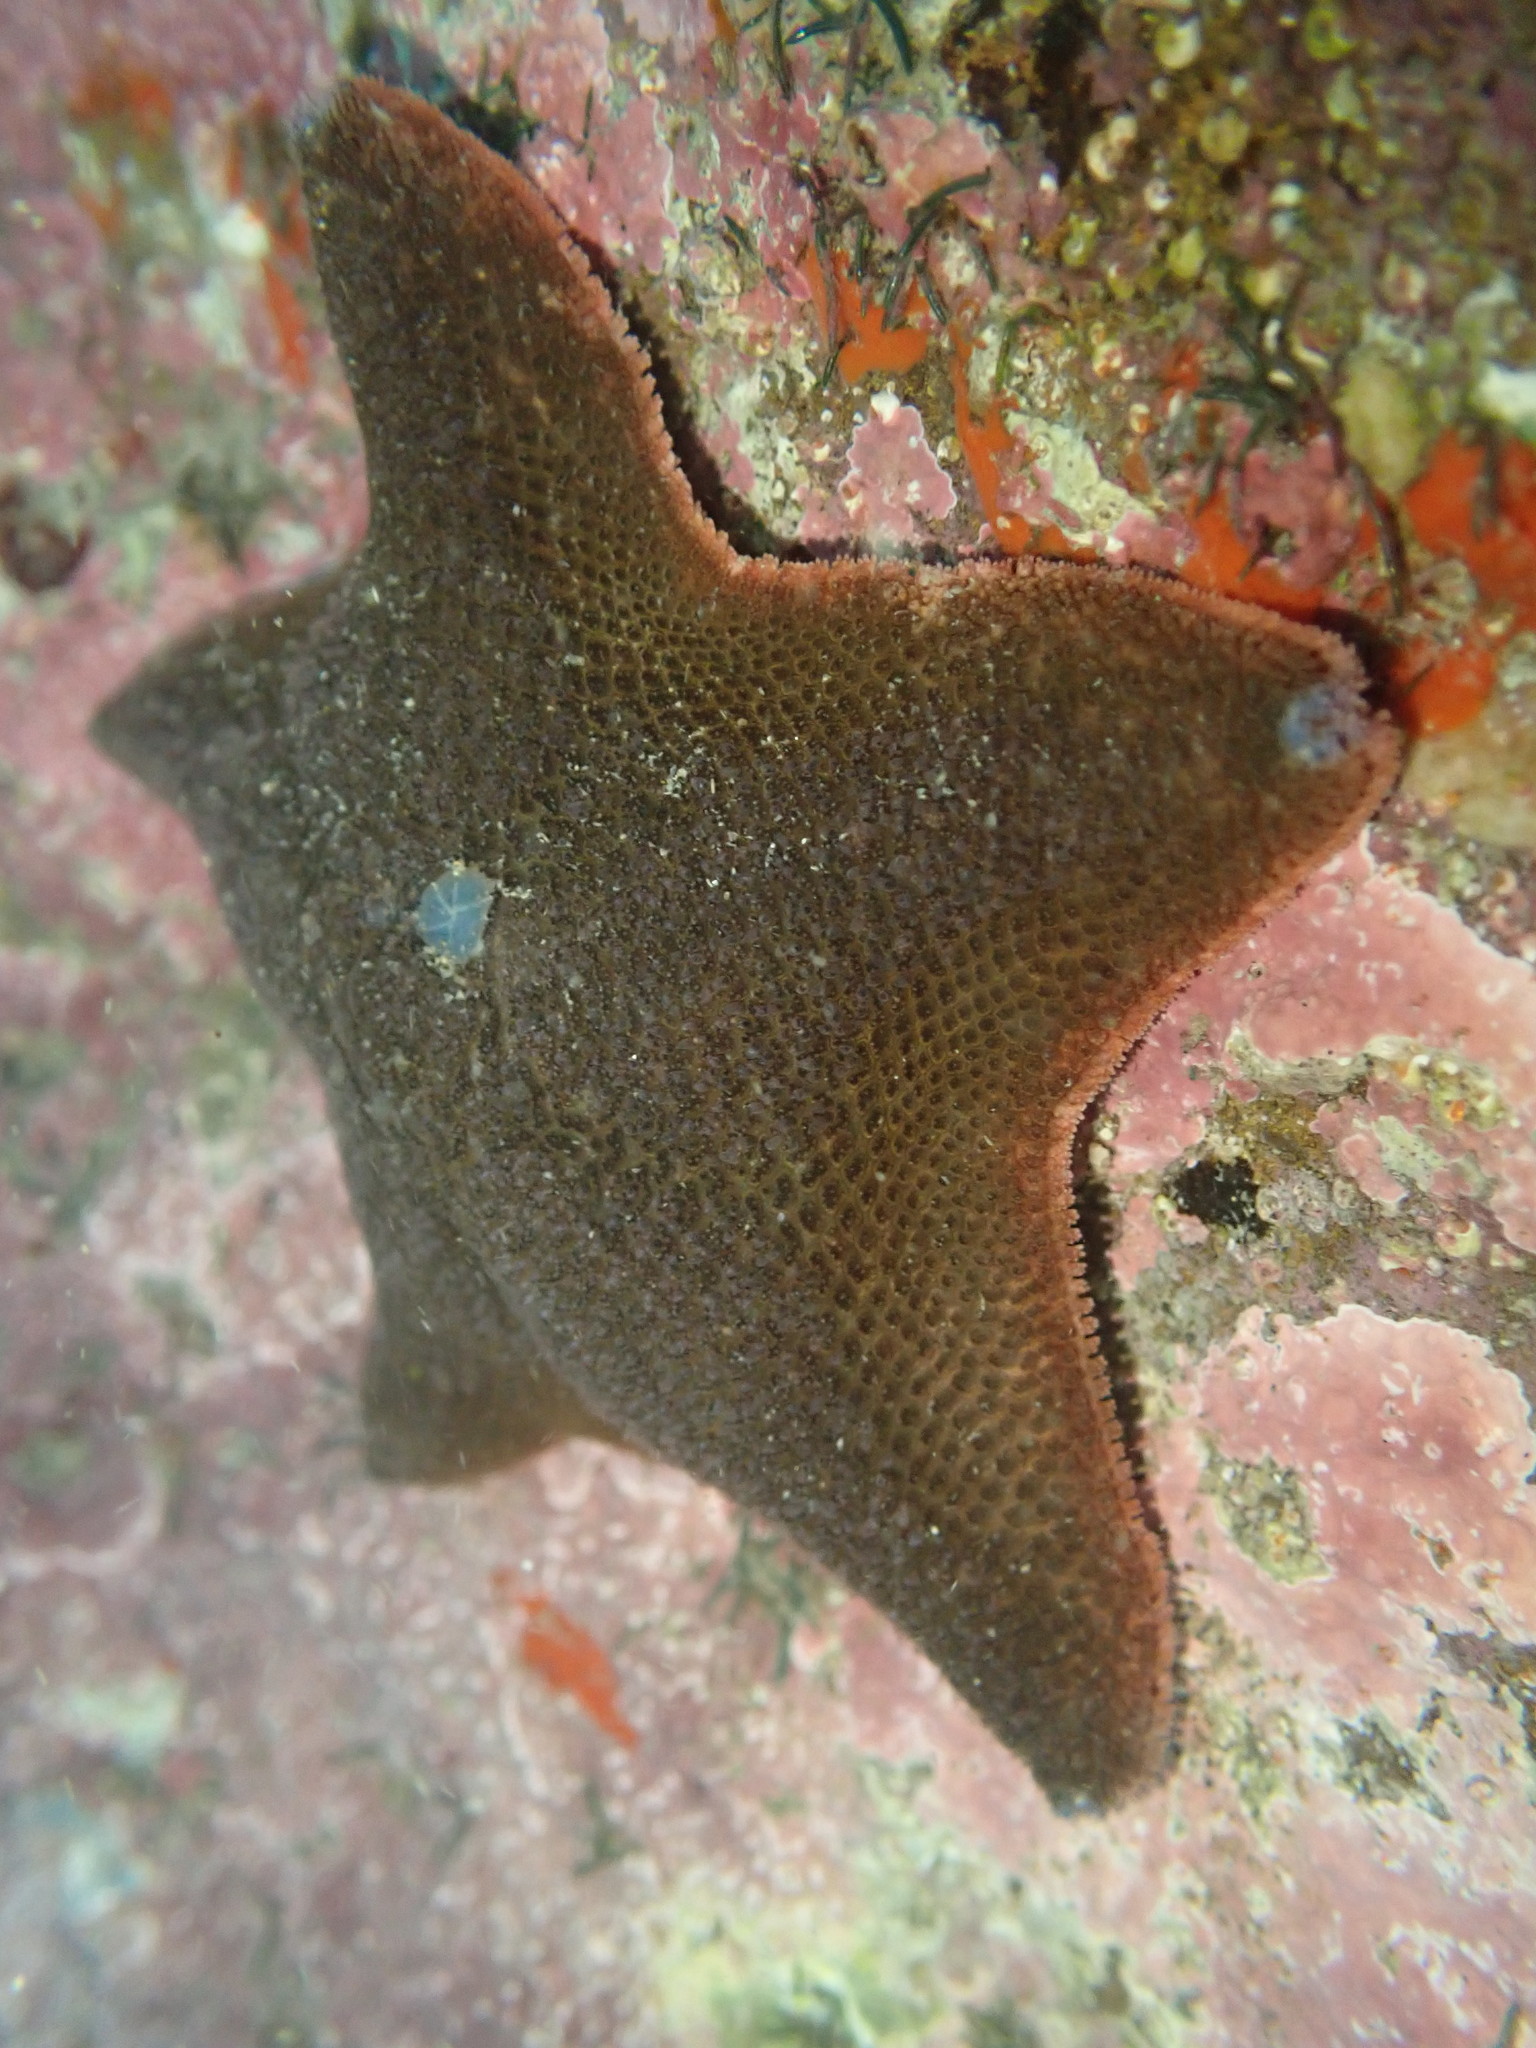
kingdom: Animalia
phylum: Echinodermata
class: Asteroidea
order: Valvatida
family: Asterinidae
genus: Patiriella
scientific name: Patiriella regularis
